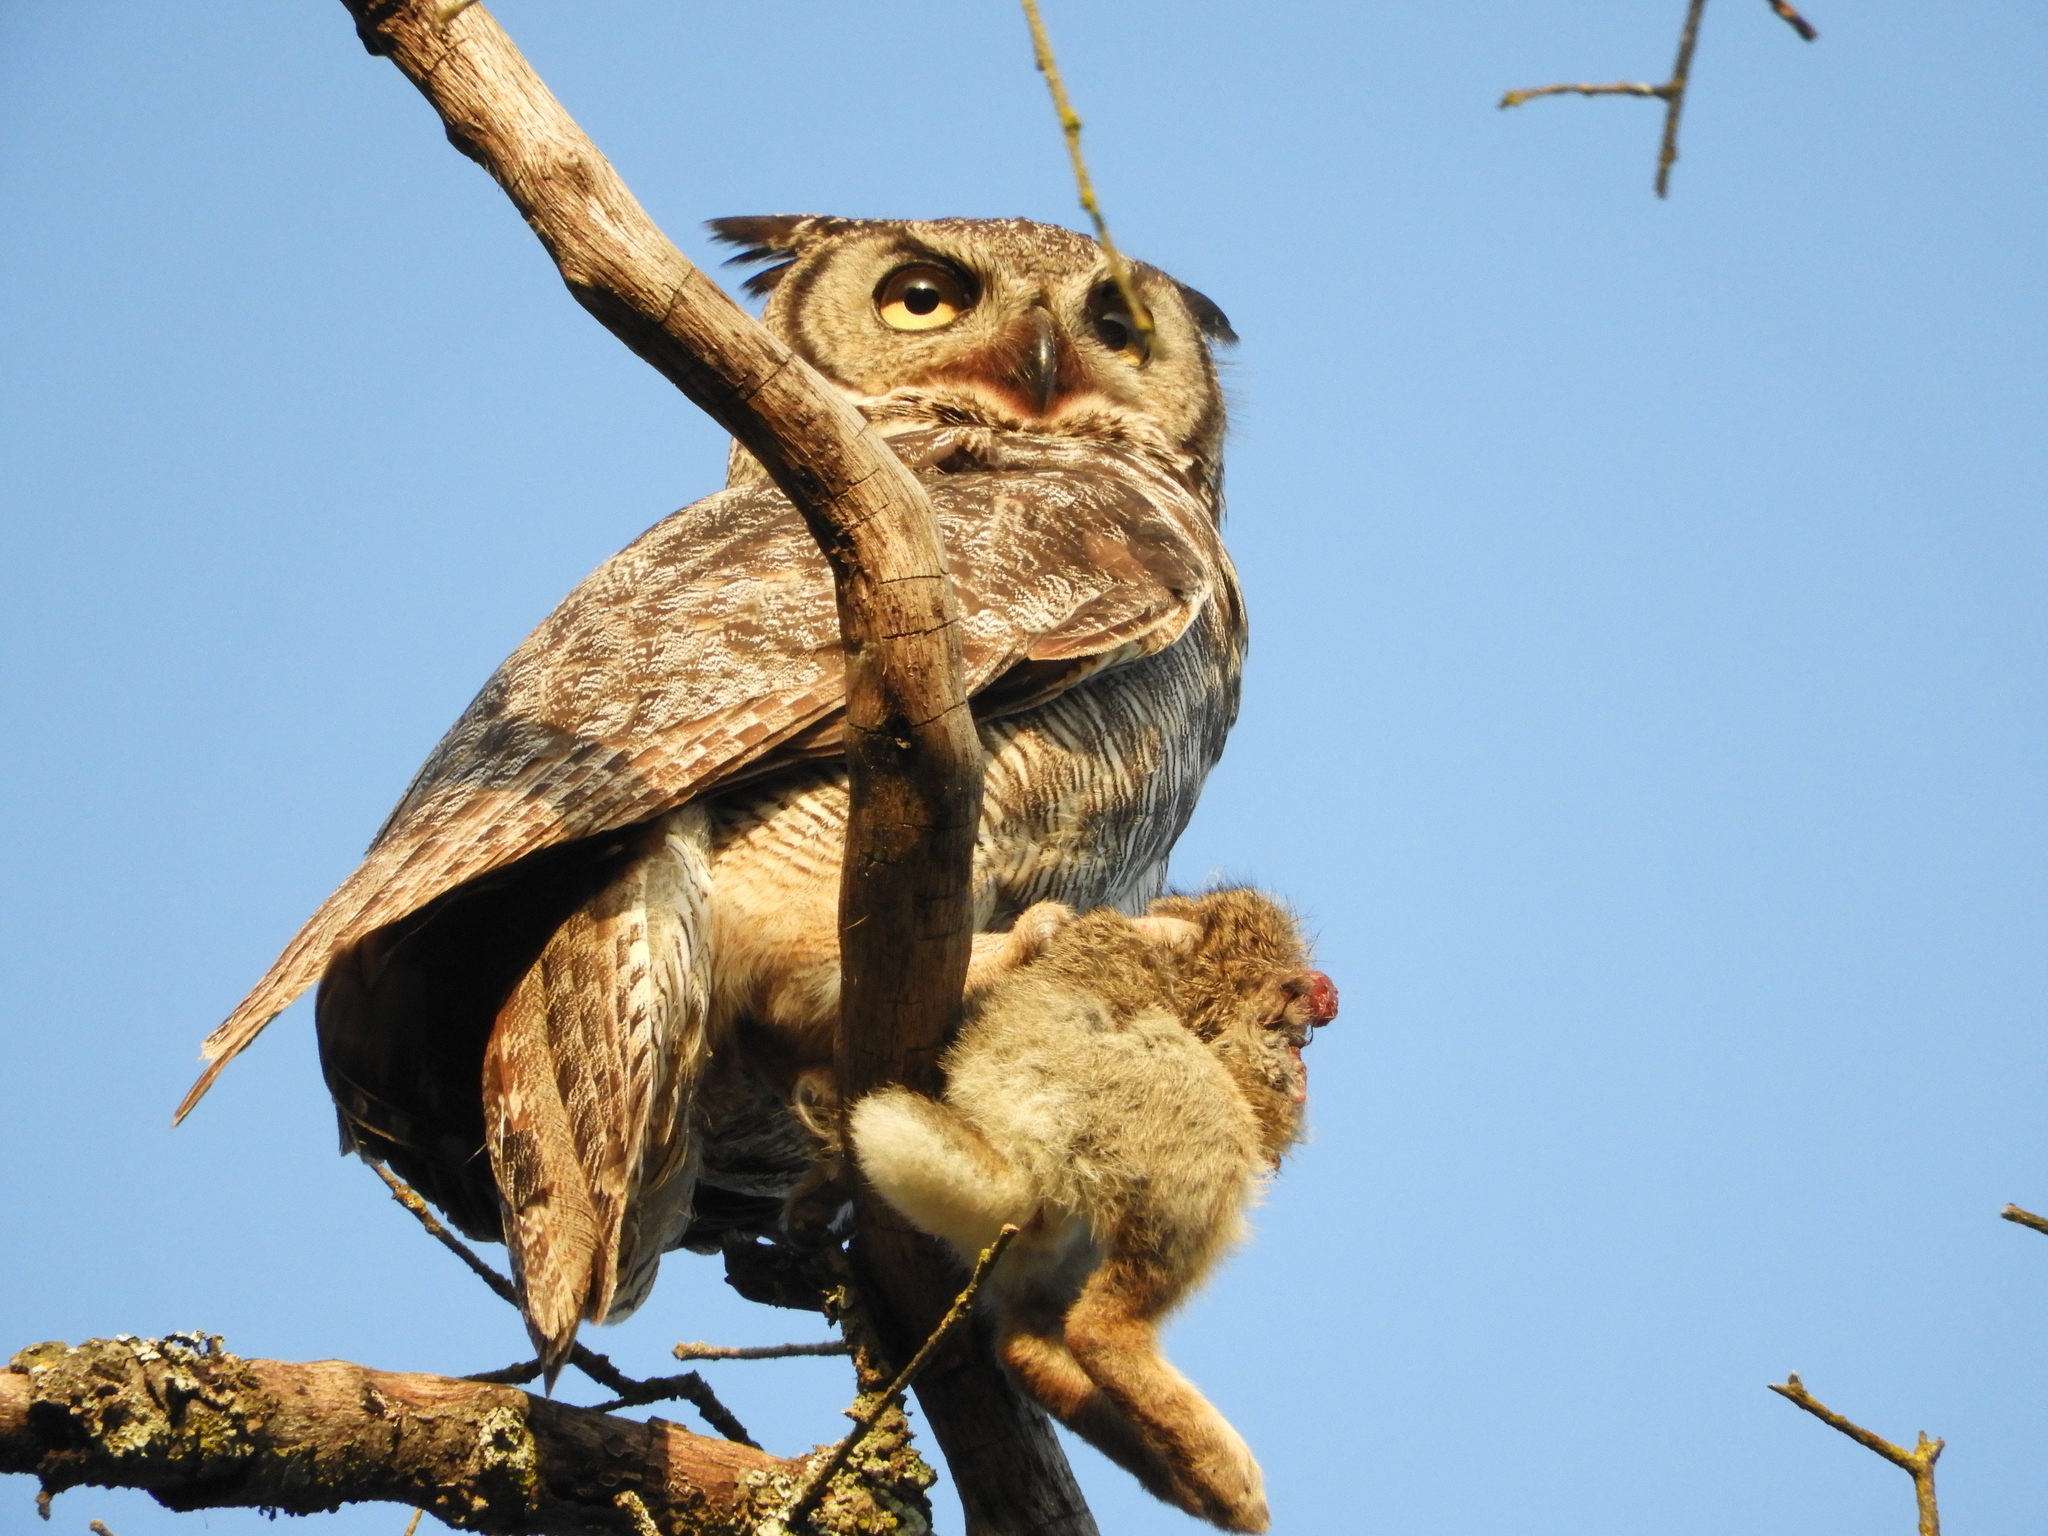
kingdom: Animalia
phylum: Chordata
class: Aves
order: Strigiformes
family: Strigidae
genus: Bubo
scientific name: Bubo virginianus
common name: Great horned owl
